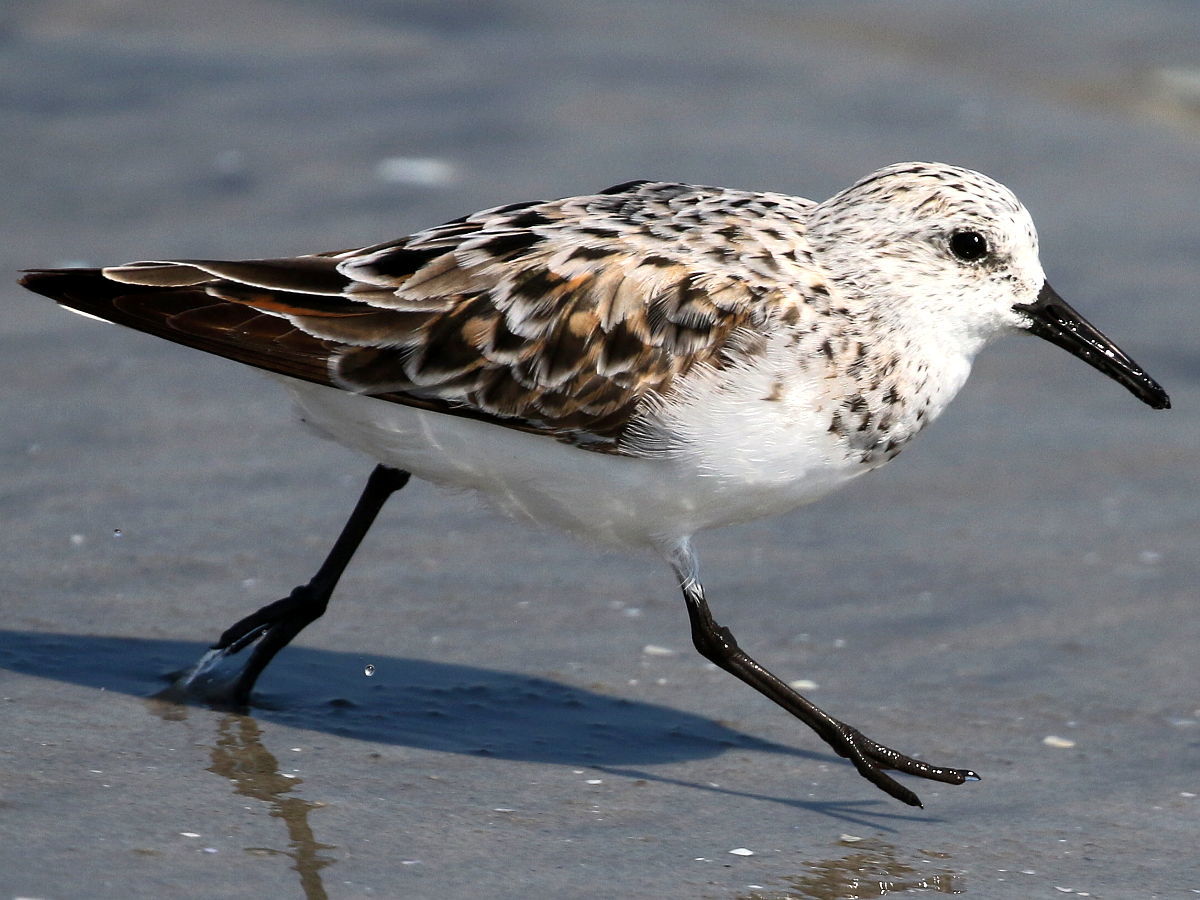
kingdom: Animalia
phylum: Chordata
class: Aves
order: Charadriiformes
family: Scolopacidae
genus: Calidris
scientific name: Calidris alba
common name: Sanderling
